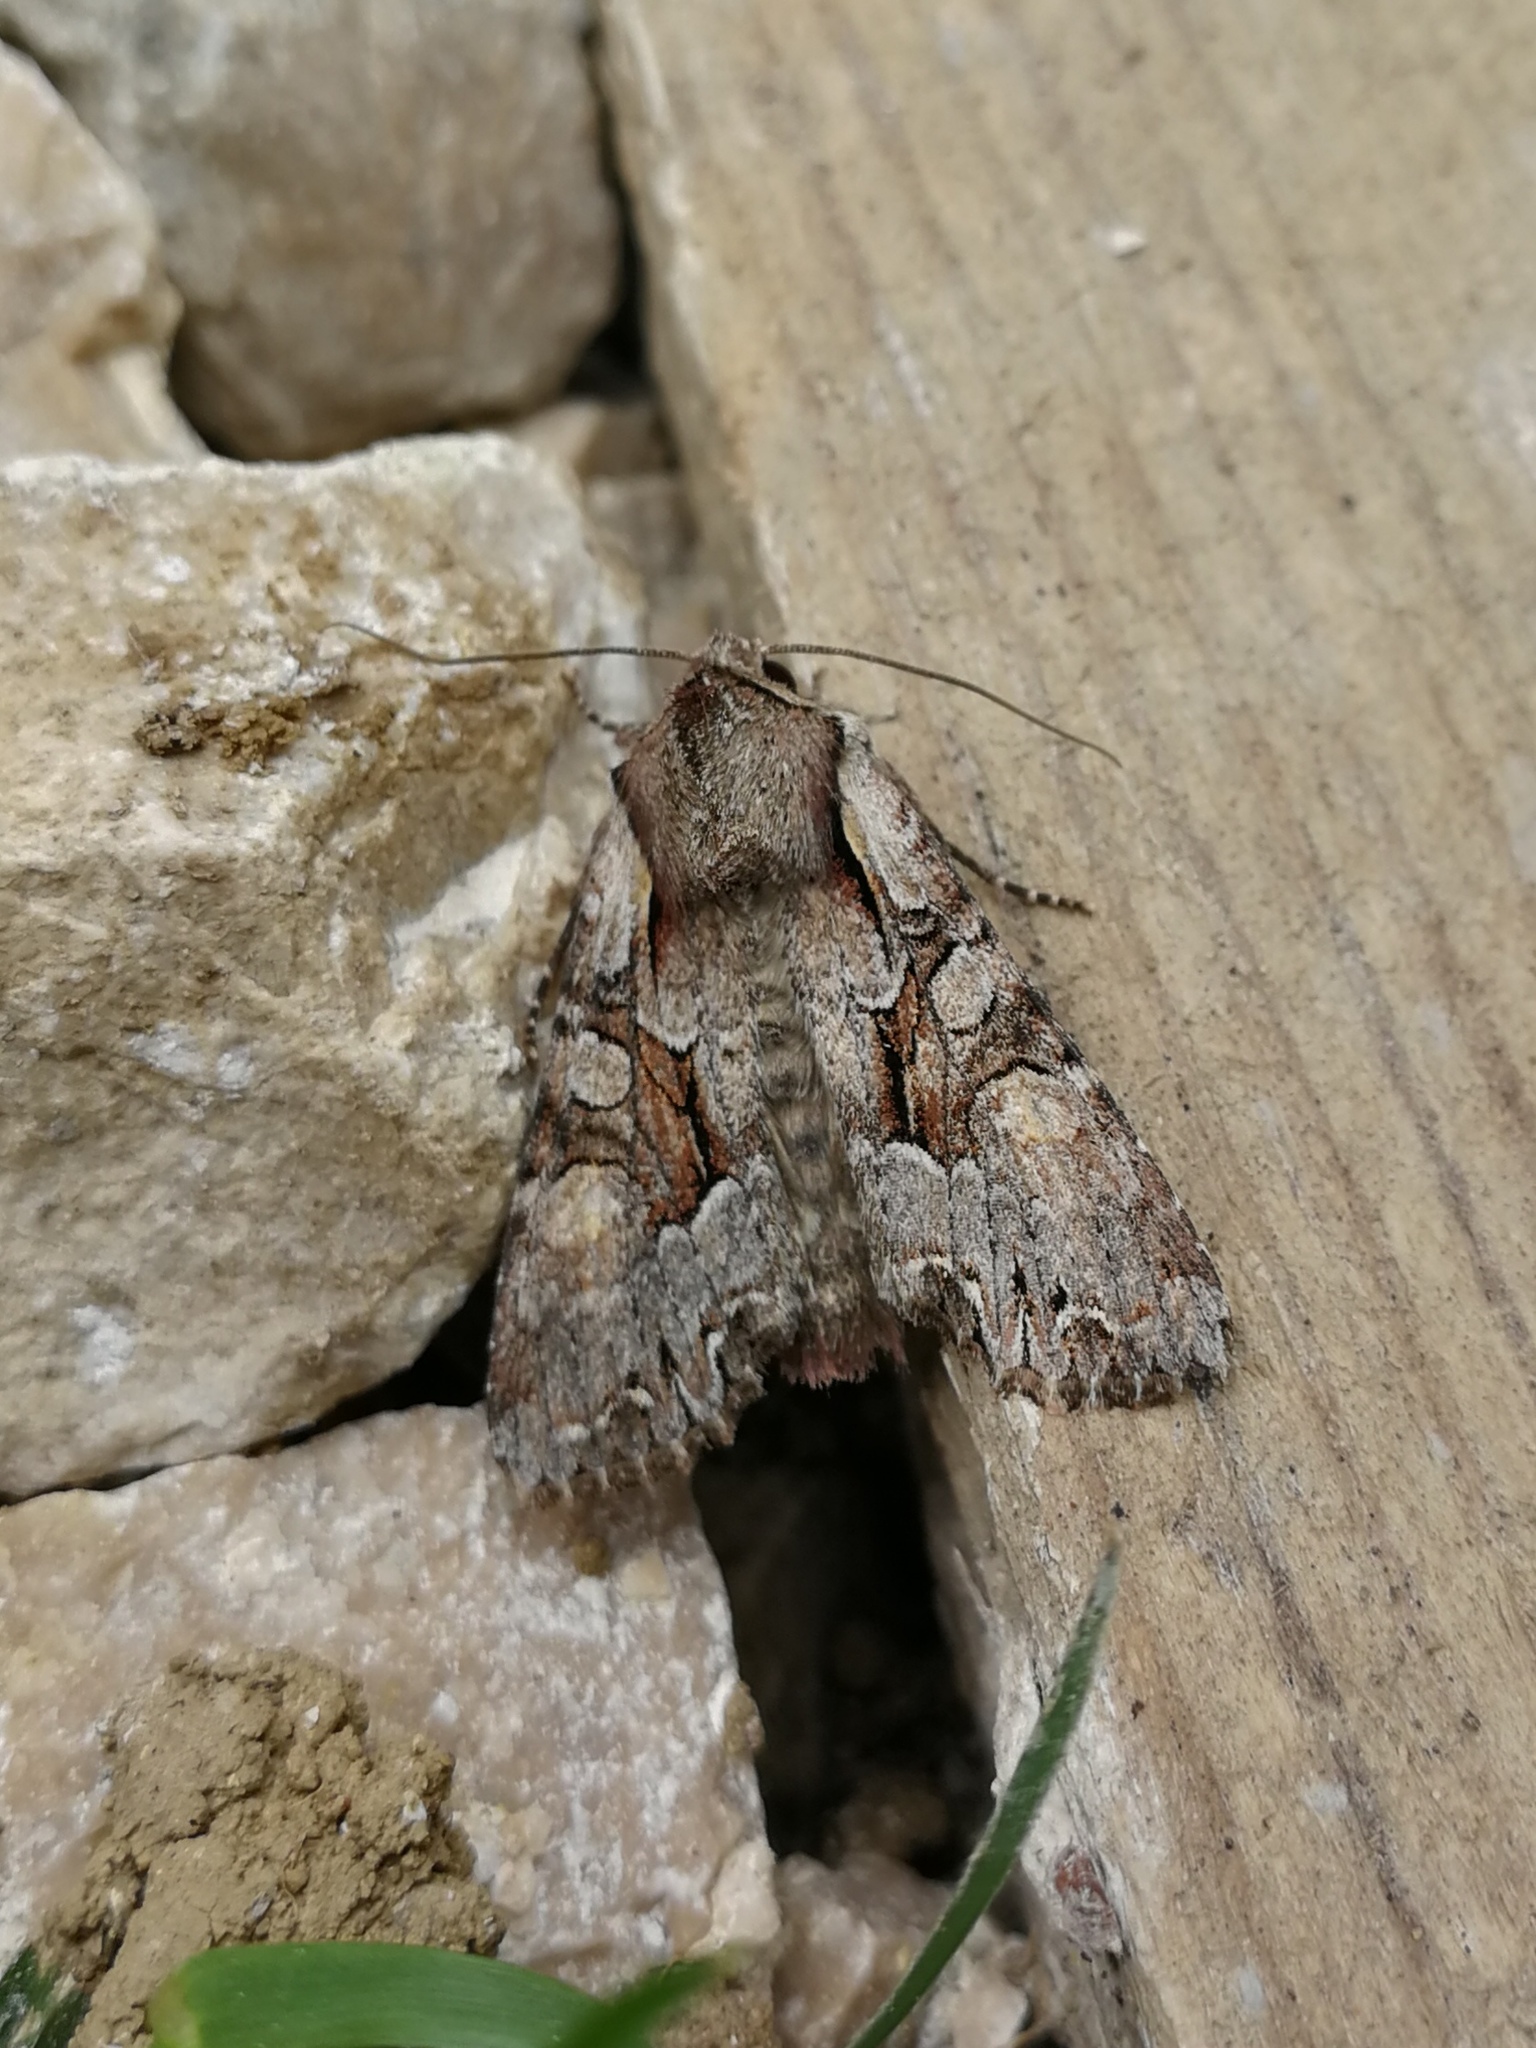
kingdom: Animalia
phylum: Arthropoda
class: Insecta
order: Lepidoptera
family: Noctuidae
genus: Lacanobia
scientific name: Lacanobia w-latinum
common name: Light brocade
